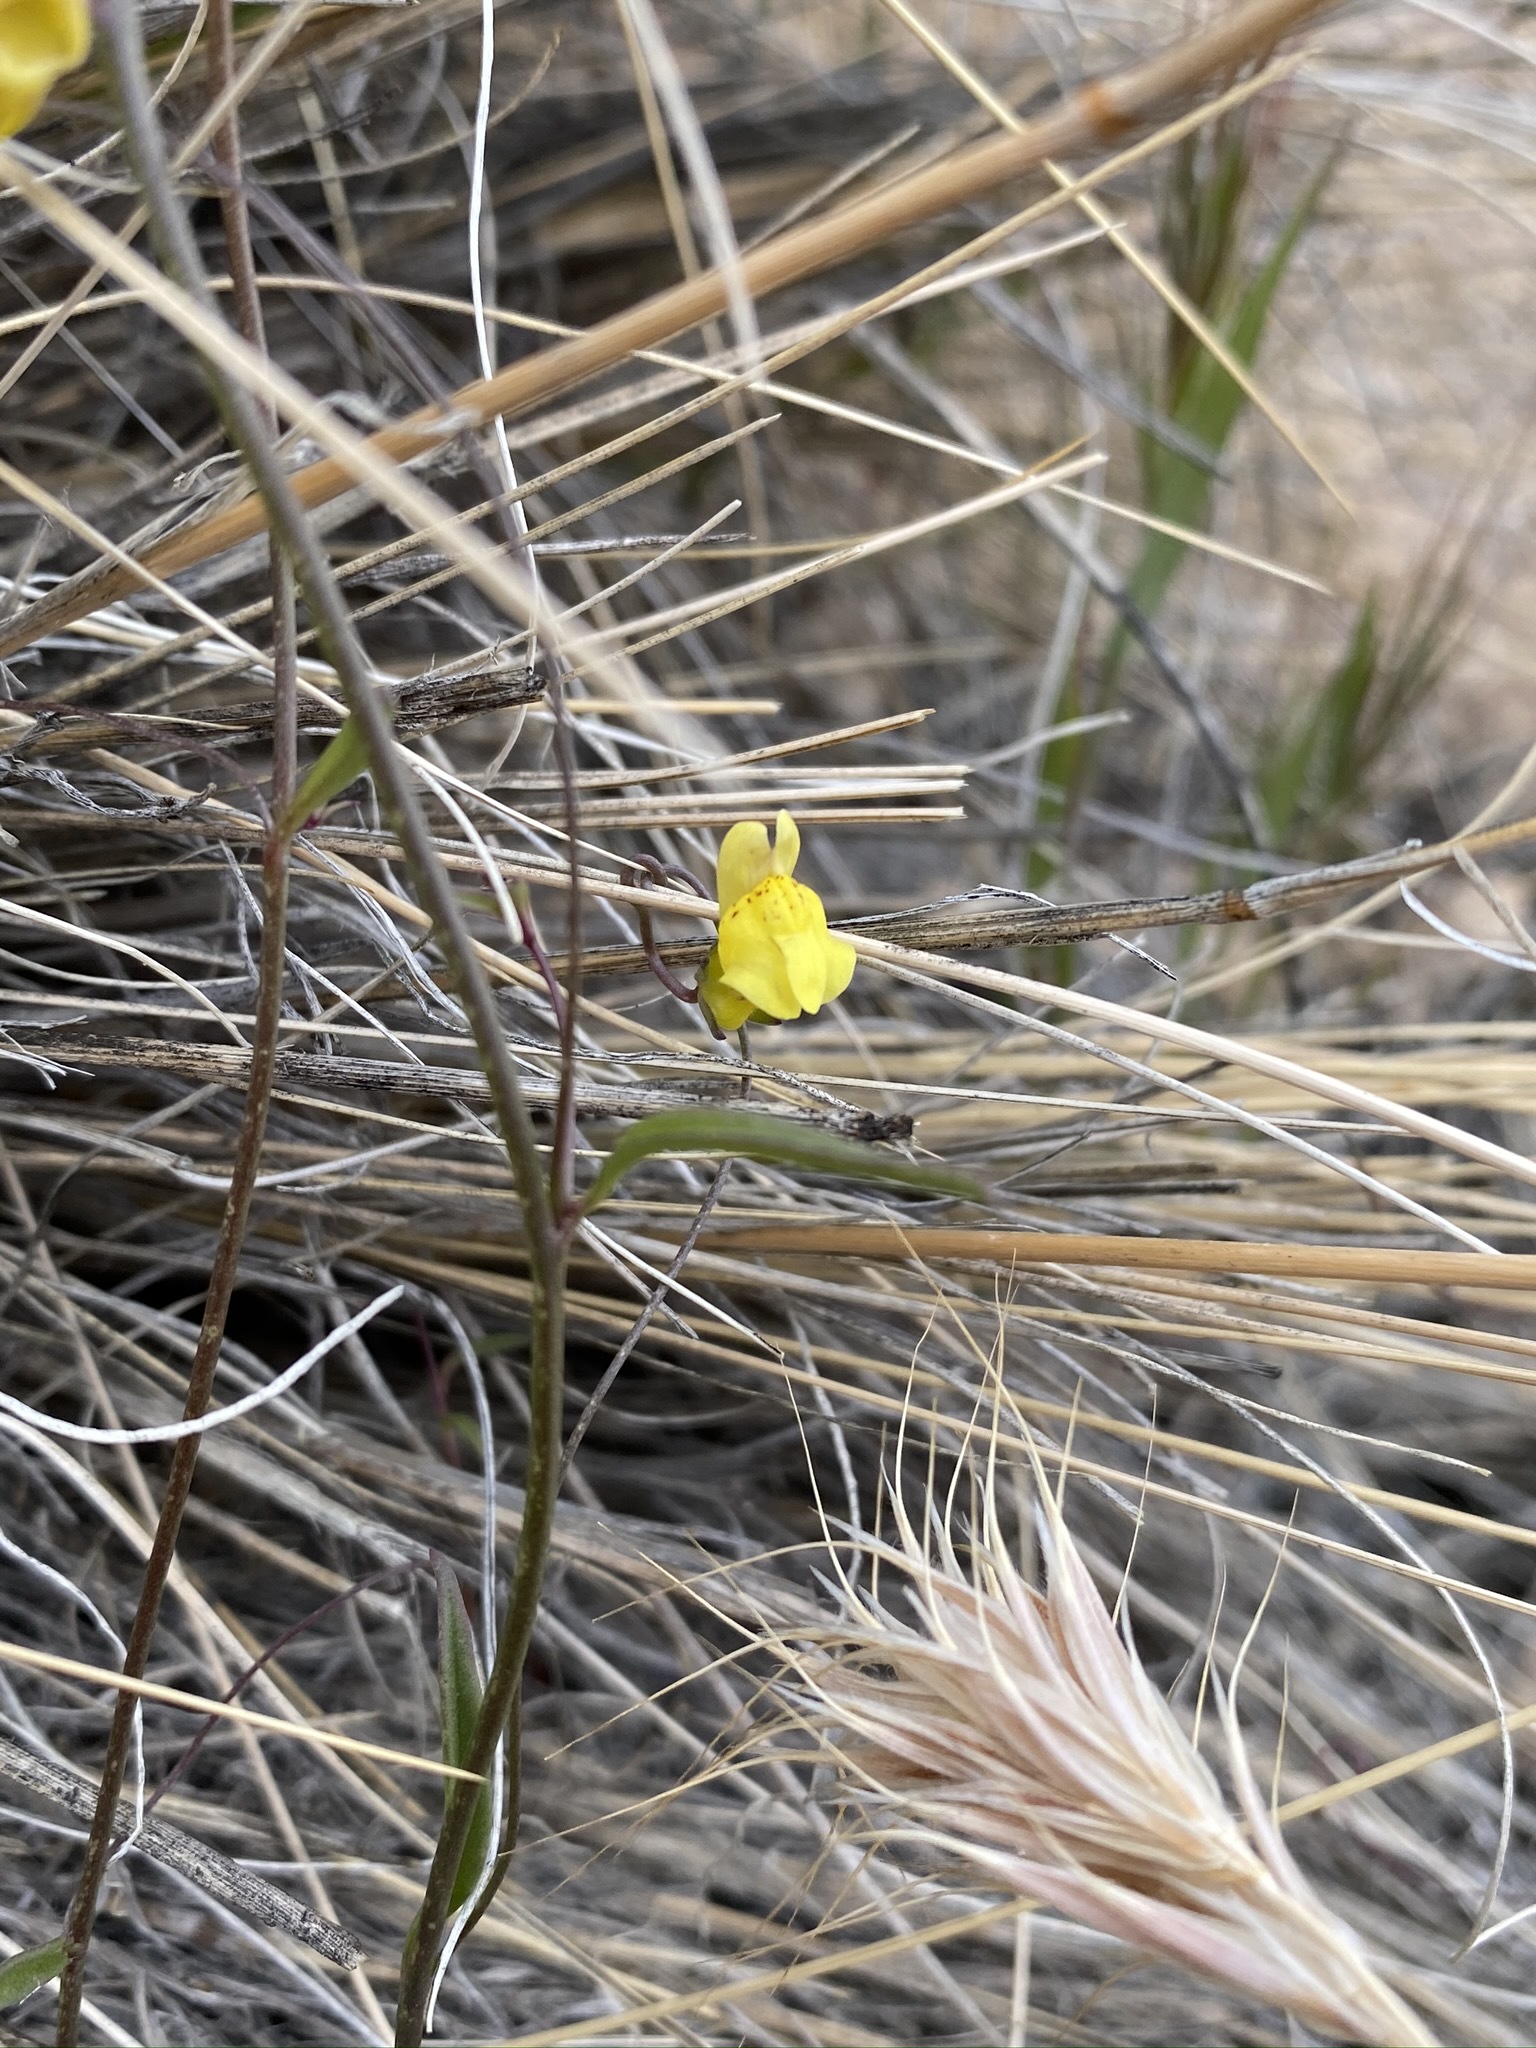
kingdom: Plantae
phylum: Tracheophyta
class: Magnoliopsida
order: Lamiales
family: Plantaginaceae
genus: Neogaerrhinum
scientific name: Neogaerrhinum filipes
